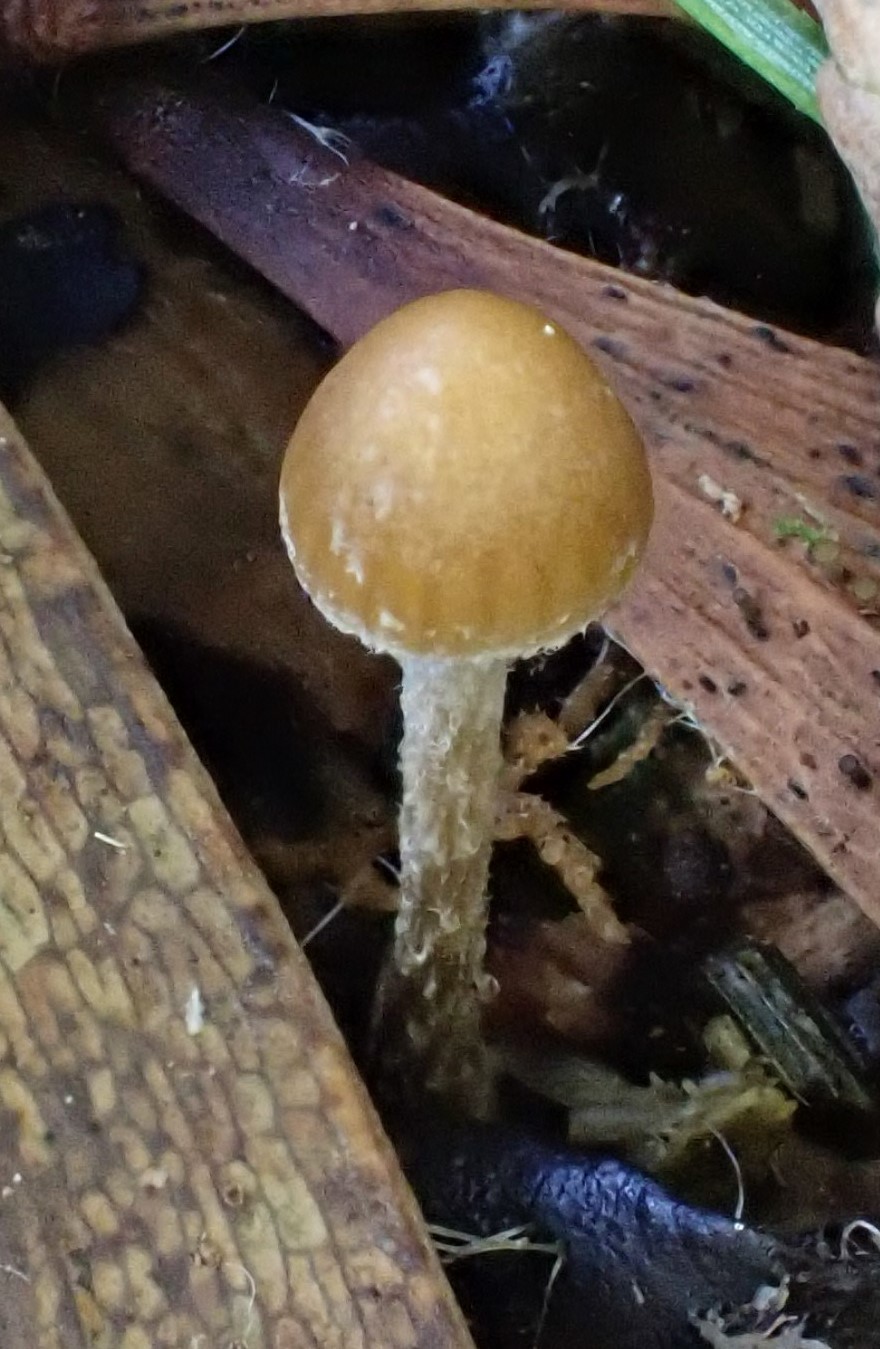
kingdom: Fungi
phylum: Basidiomycota
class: Agaricomycetes
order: Agaricales
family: Hymenogastraceae
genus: Psilocybe
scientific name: Psilocybe alutacea
